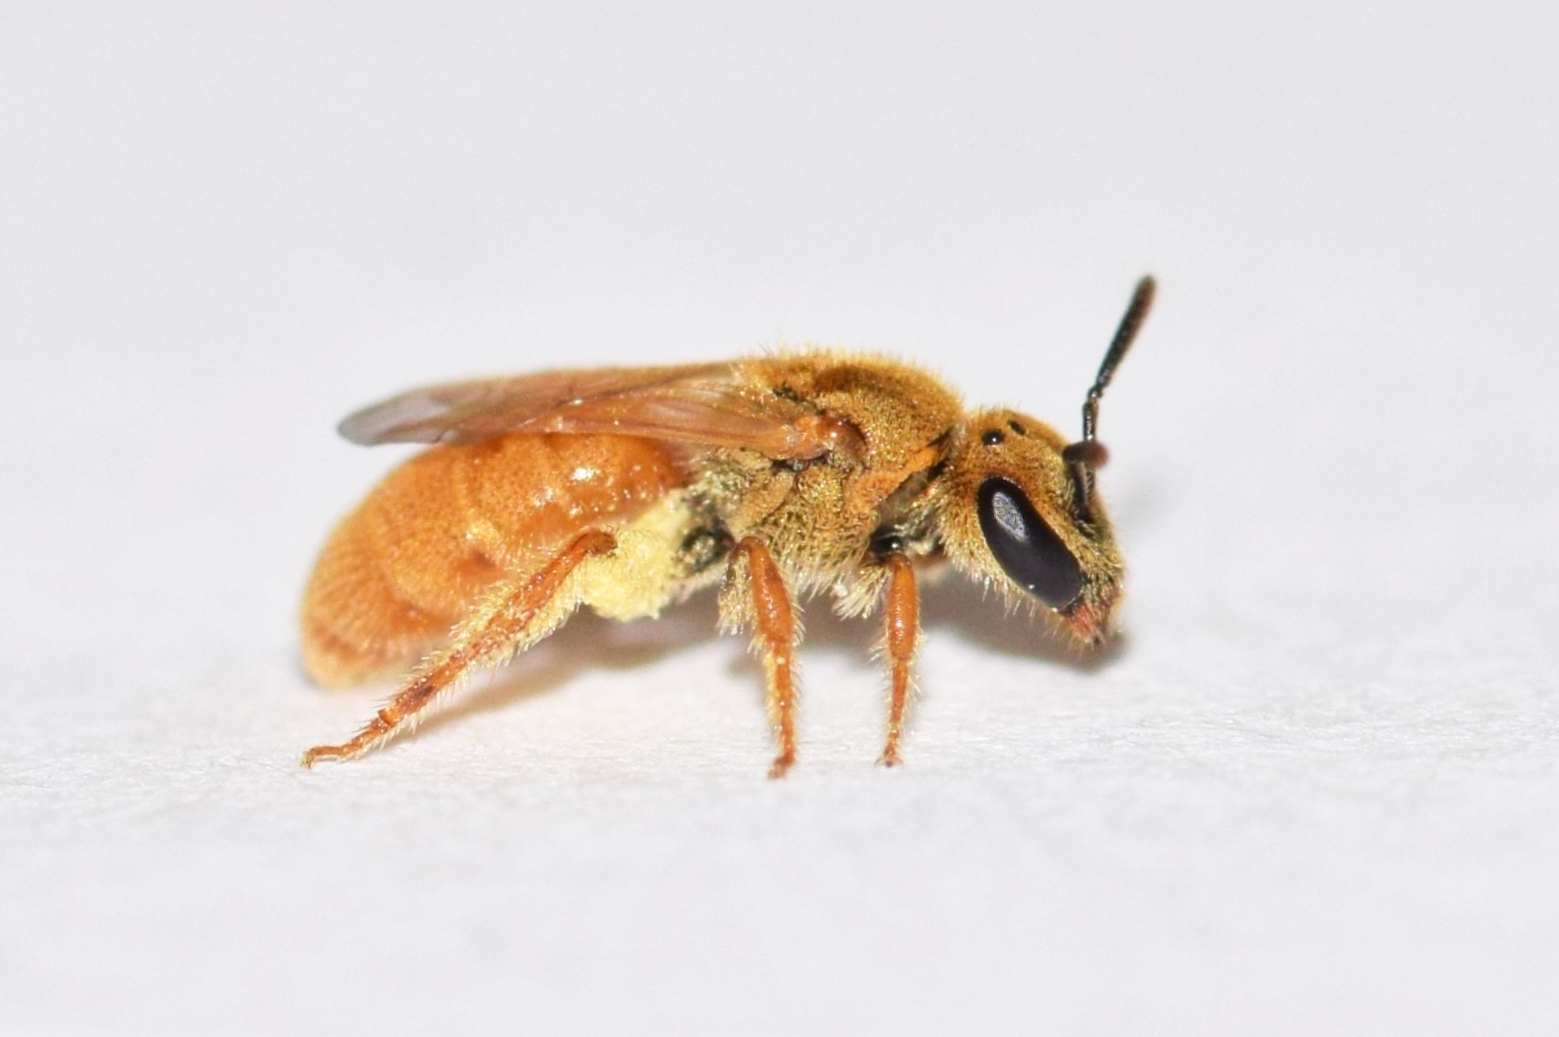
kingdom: Animalia
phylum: Arthropoda
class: Insecta
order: Hymenoptera
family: Halictidae
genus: Lasioglossum
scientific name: Lasioglossum vierecki
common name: Viereck's sweat bee
